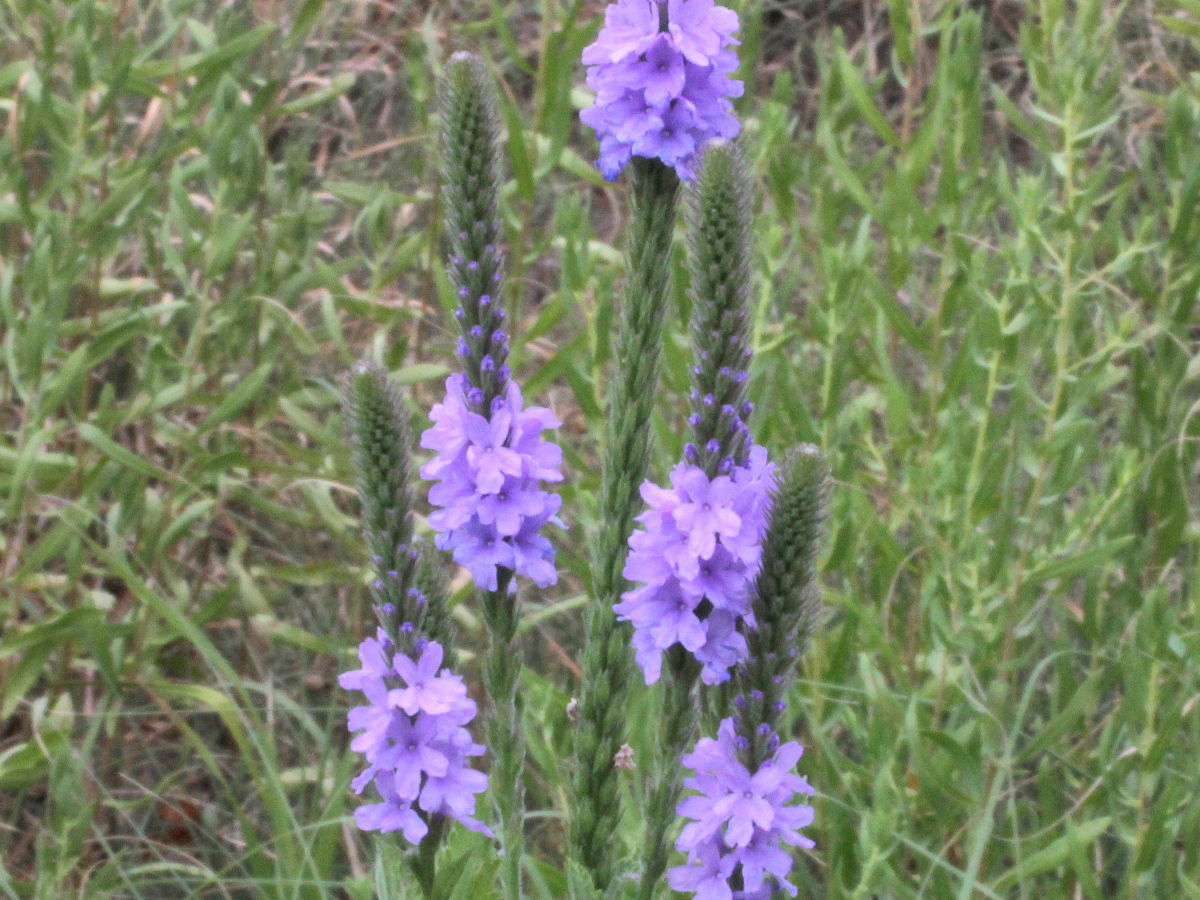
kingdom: Plantae
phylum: Tracheophyta
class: Magnoliopsida
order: Lamiales
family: Verbenaceae
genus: Verbena
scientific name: Verbena stricta
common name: Hoary vervain
